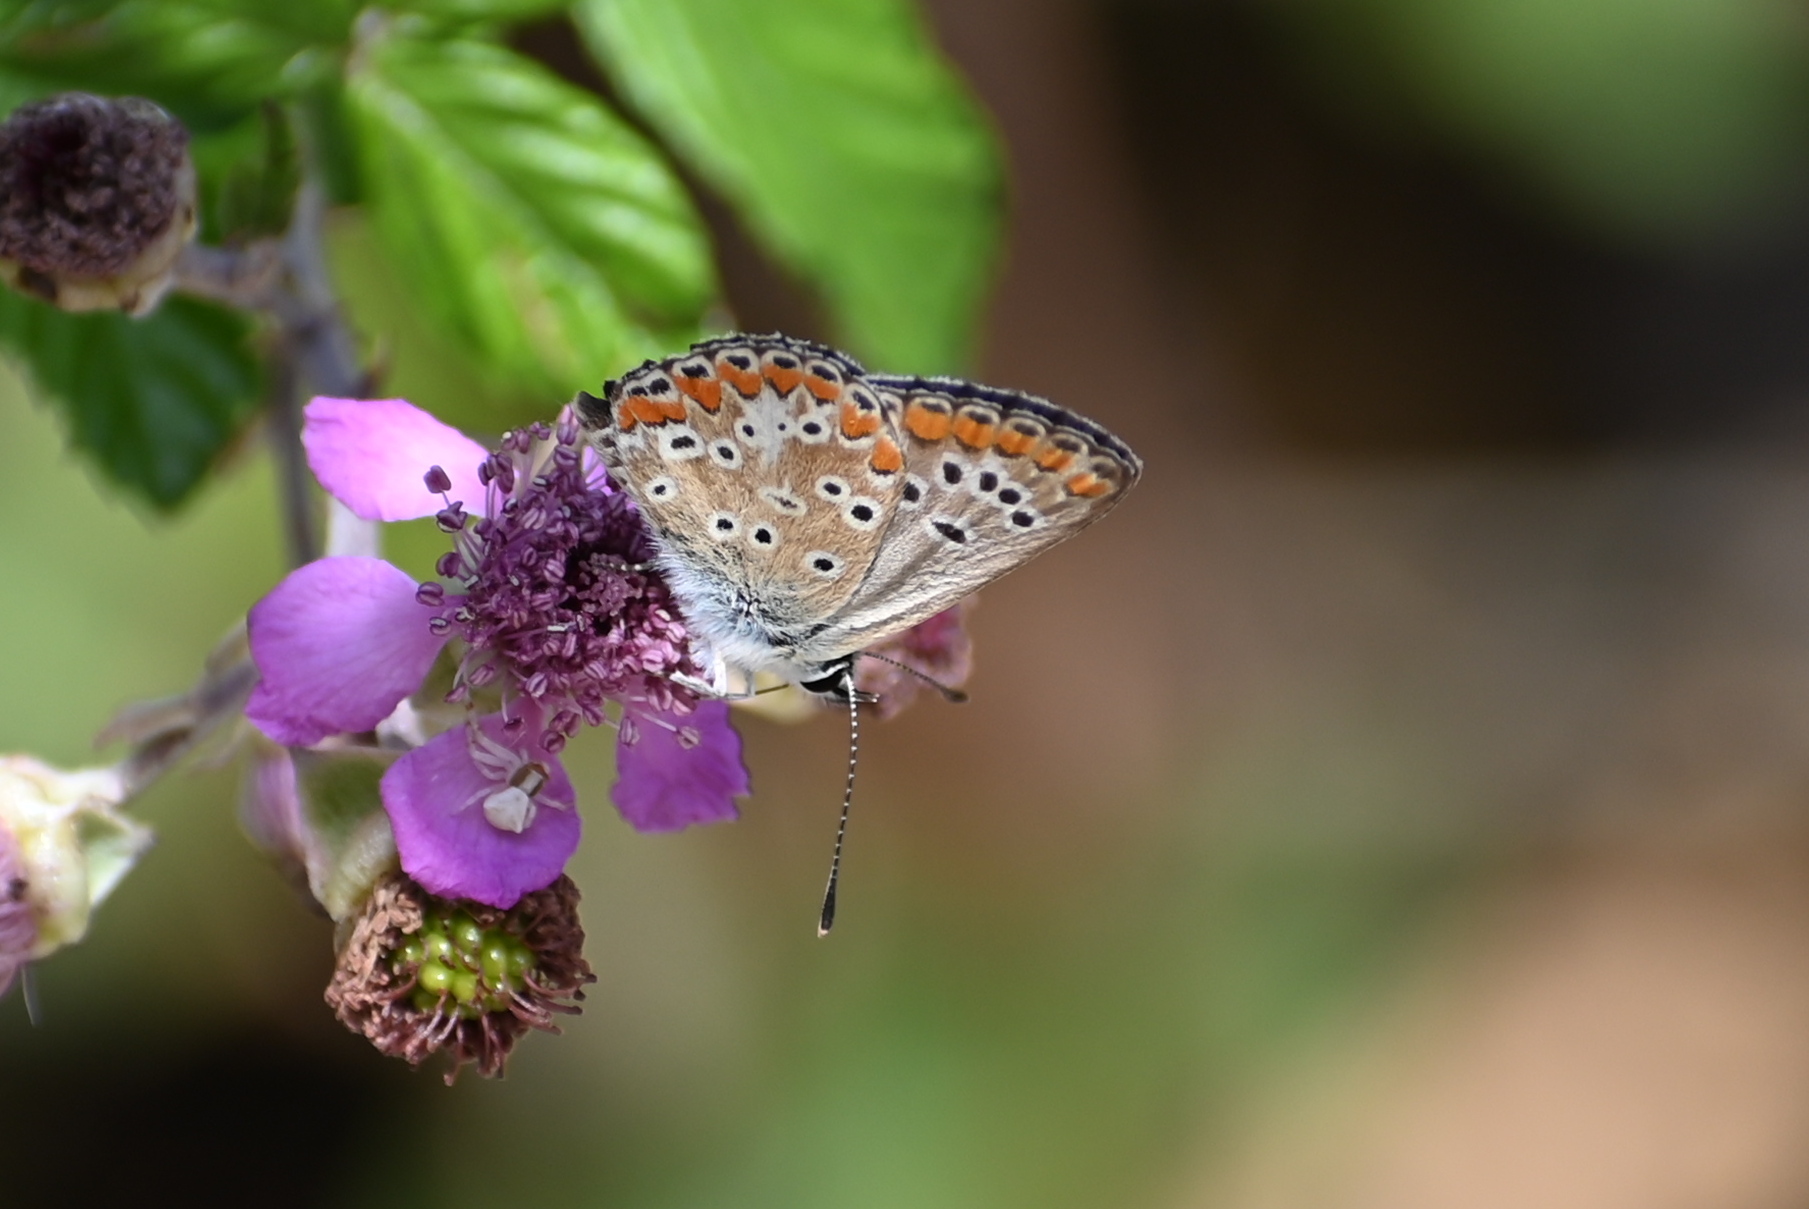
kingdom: Animalia
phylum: Arthropoda
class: Insecta
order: Lepidoptera
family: Lycaenidae
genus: Aricia
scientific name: Aricia agestis
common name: Brown argus
